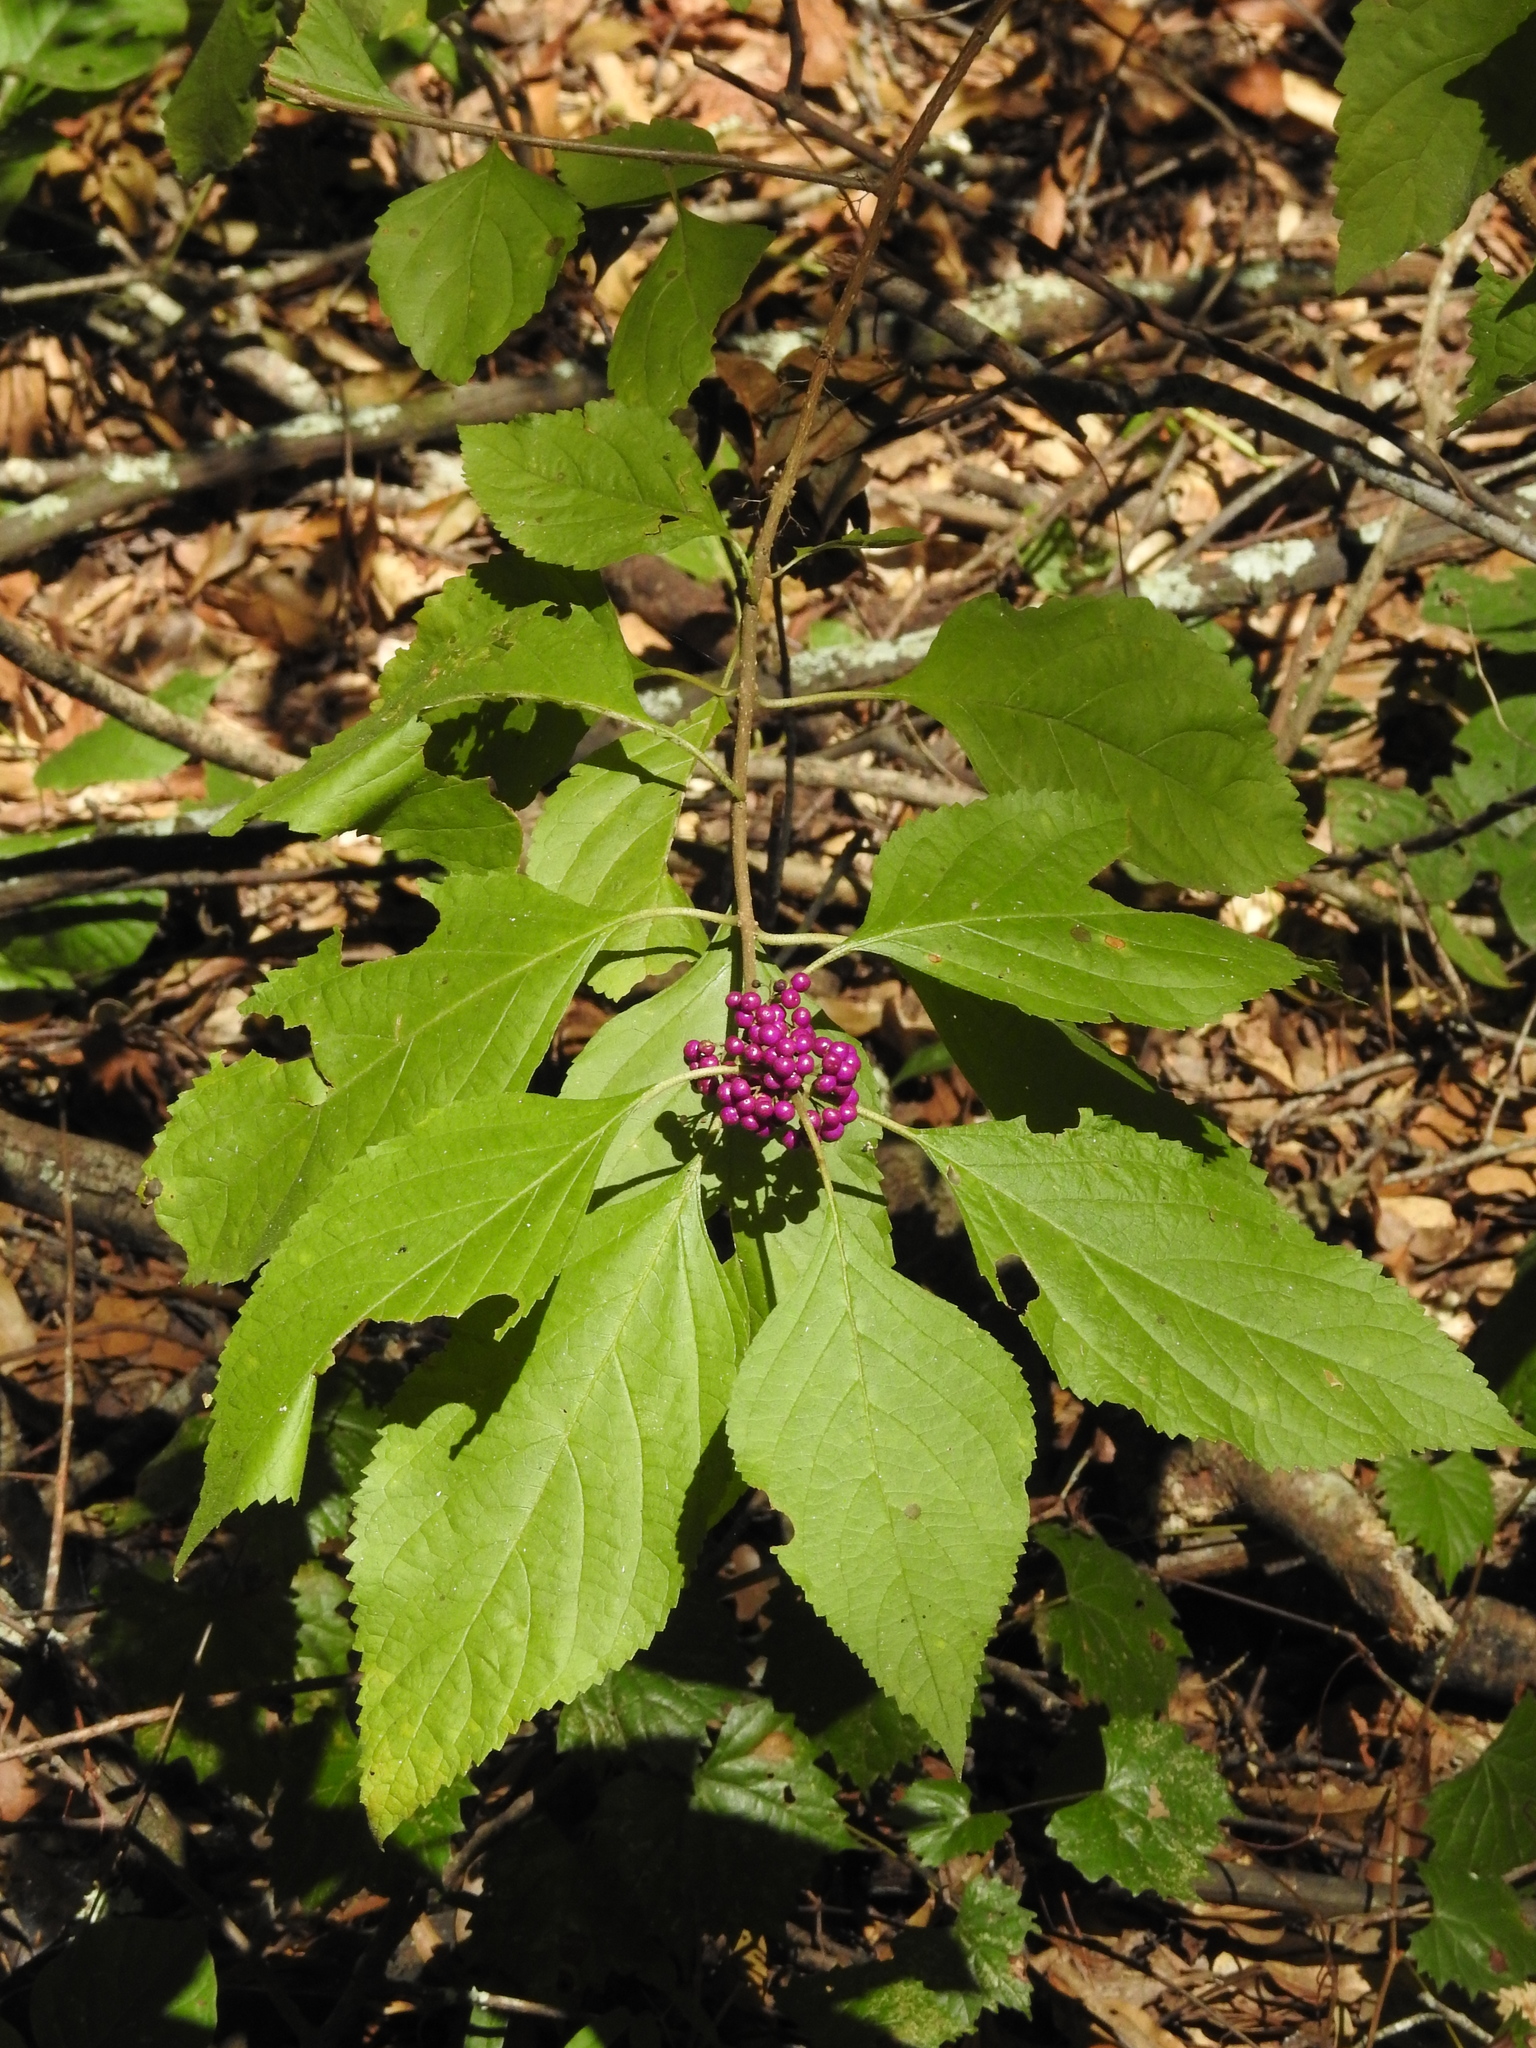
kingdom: Plantae
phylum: Tracheophyta
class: Magnoliopsida
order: Lamiales
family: Lamiaceae
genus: Callicarpa
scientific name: Callicarpa americana
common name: American beautyberry
